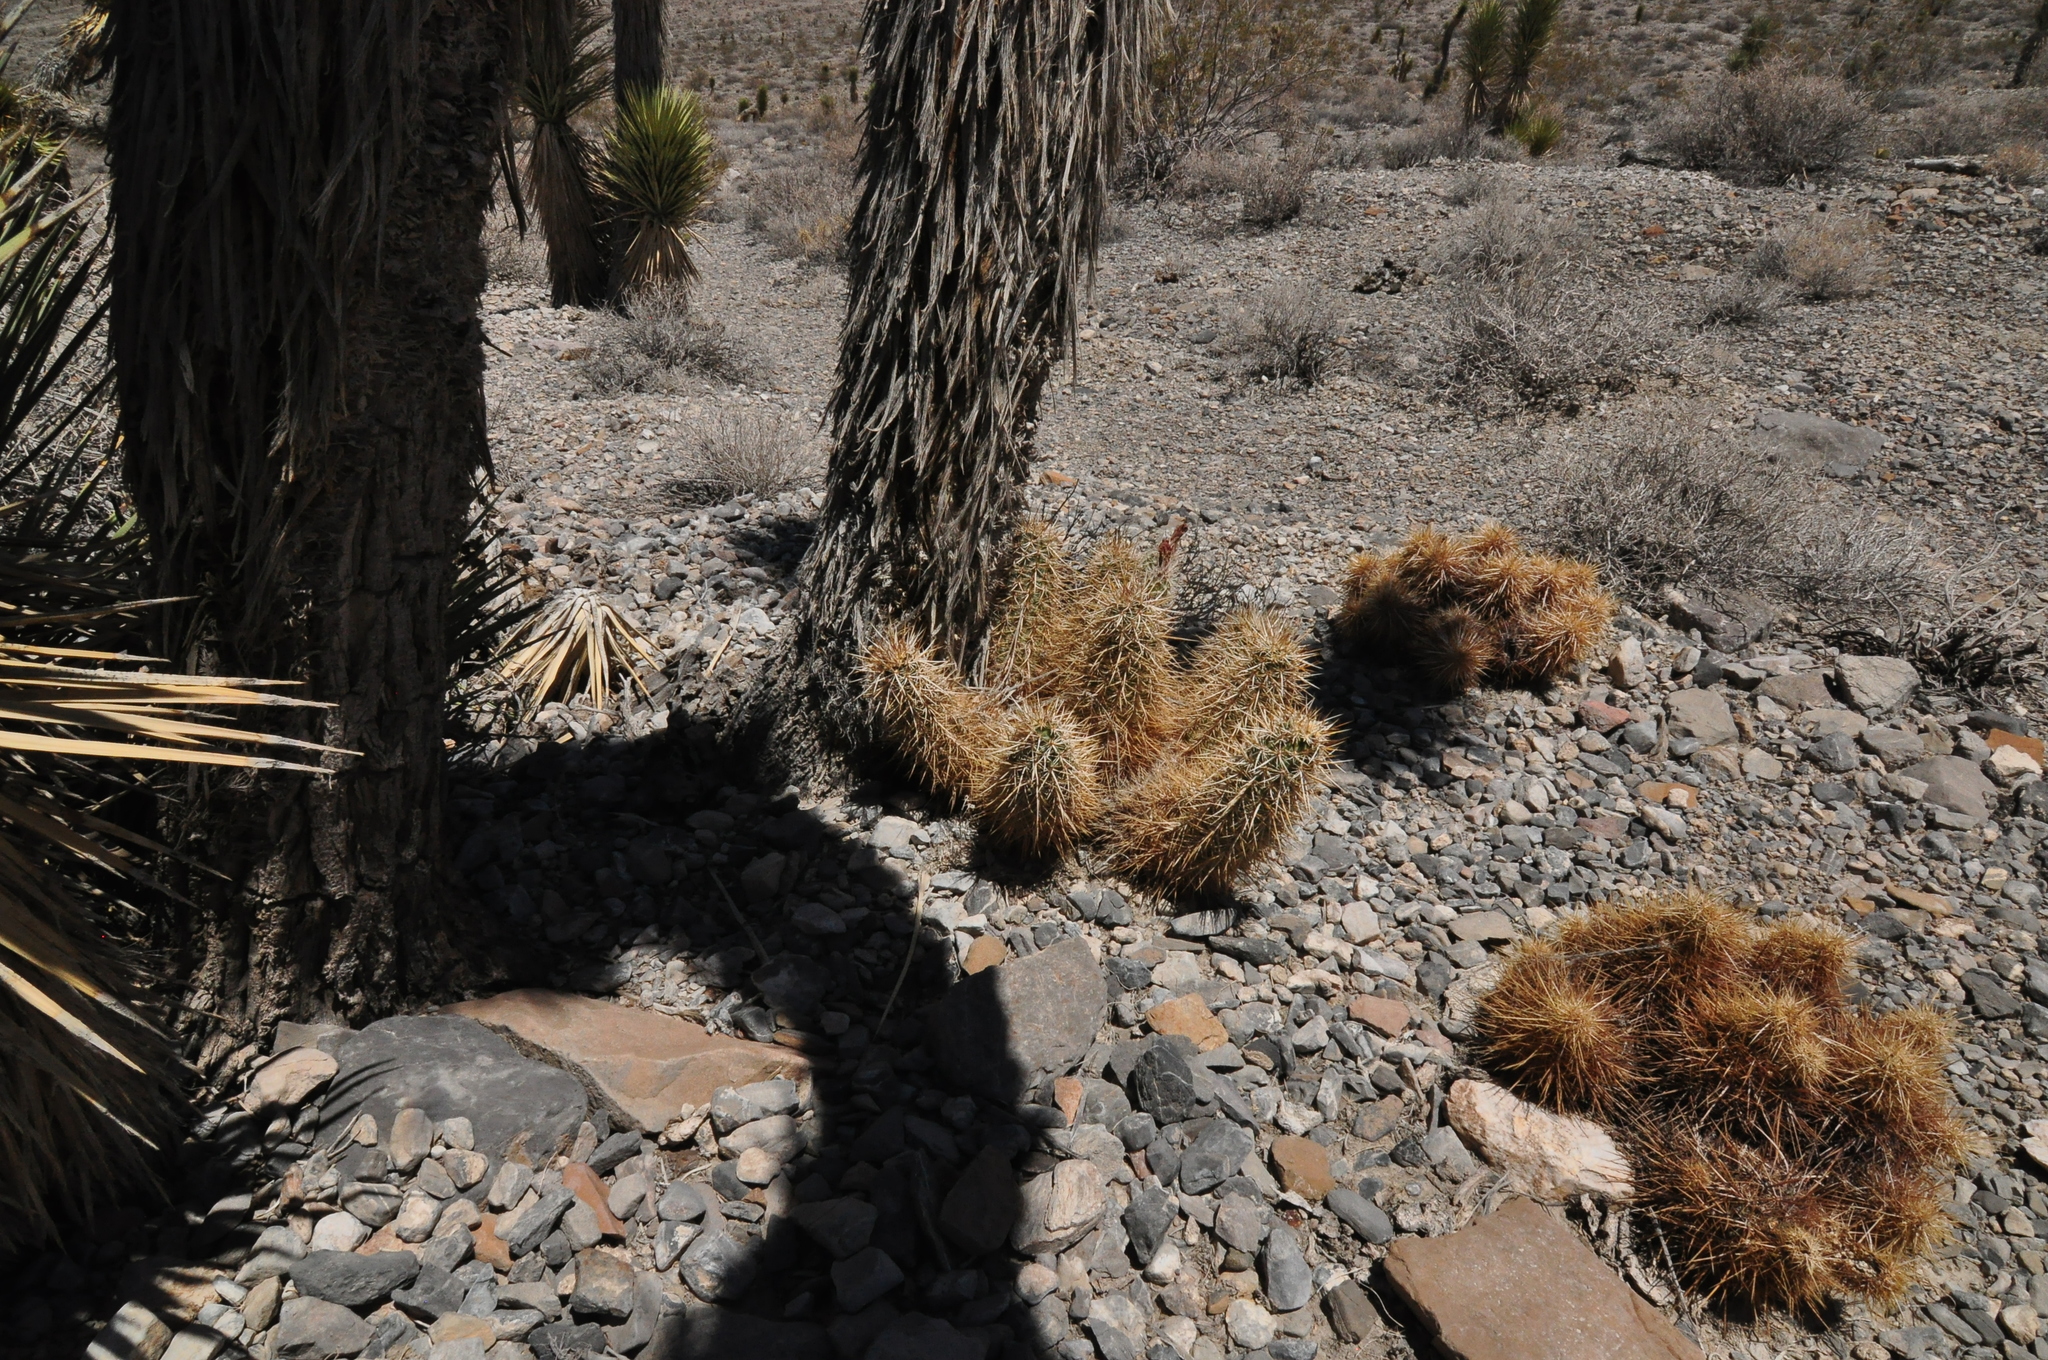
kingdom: Plantae
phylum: Tracheophyta
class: Magnoliopsida
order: Caryophyllales
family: Cactaceae
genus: Echinocereus
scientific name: Echinocereus engelmannii
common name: Engelmann's hedgehog cactus
